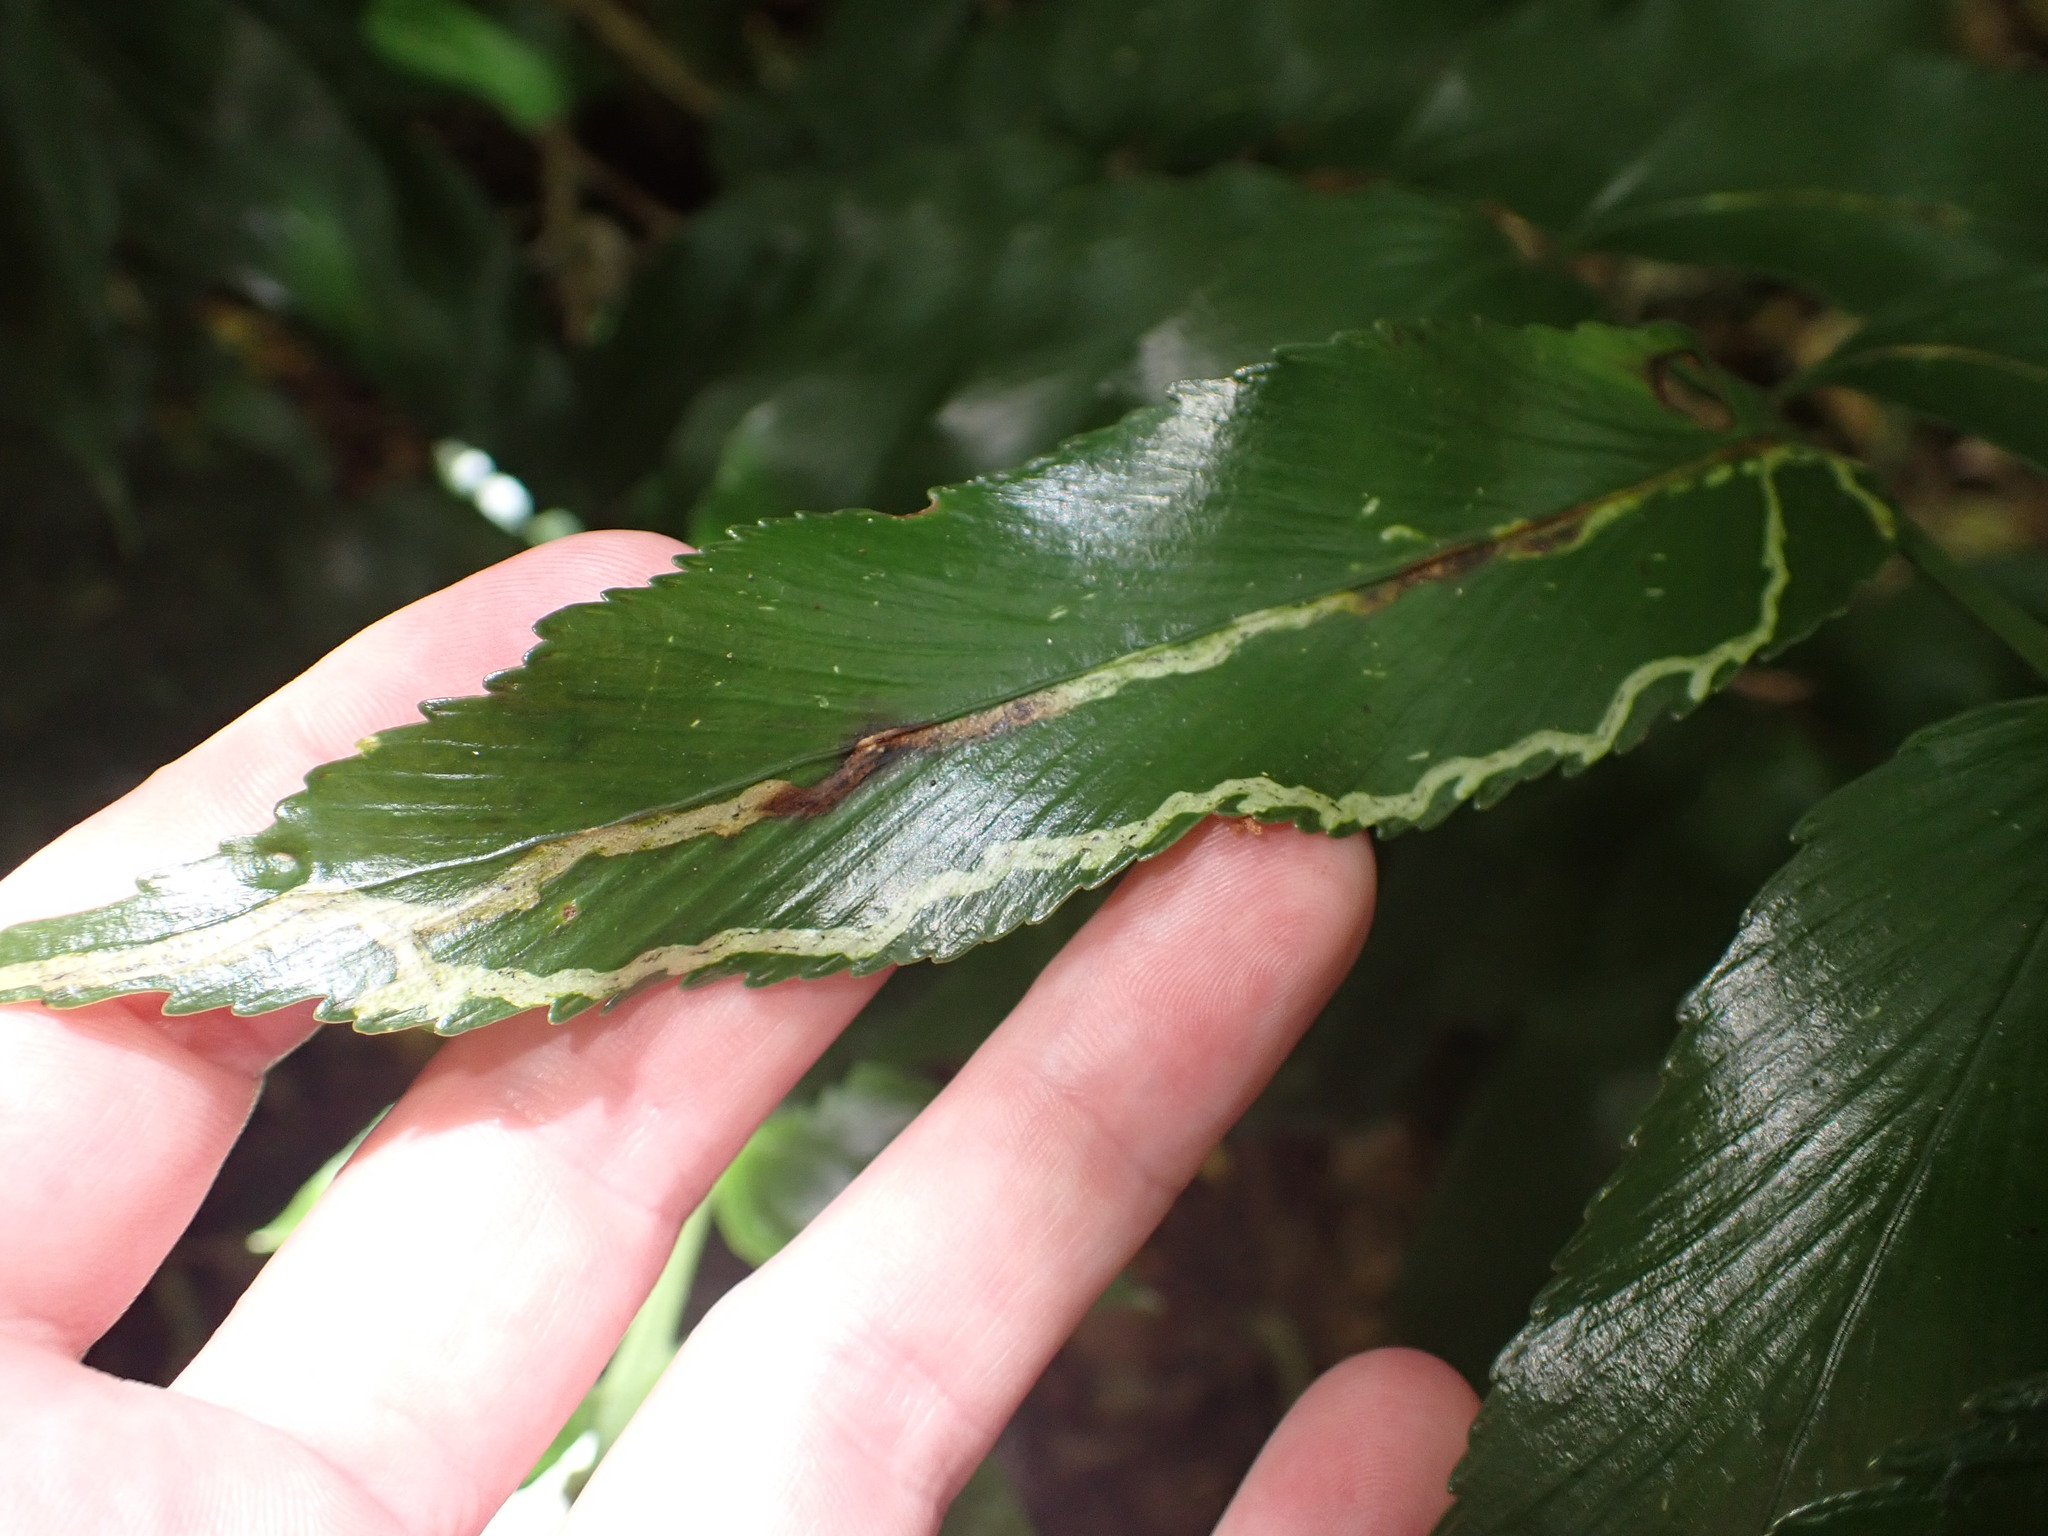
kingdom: Animalia
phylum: Arthropoda
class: Insecta
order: Diptera
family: Agromyzidae
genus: Phytoliriomyza
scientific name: Phytoliriomyza flavopleura
